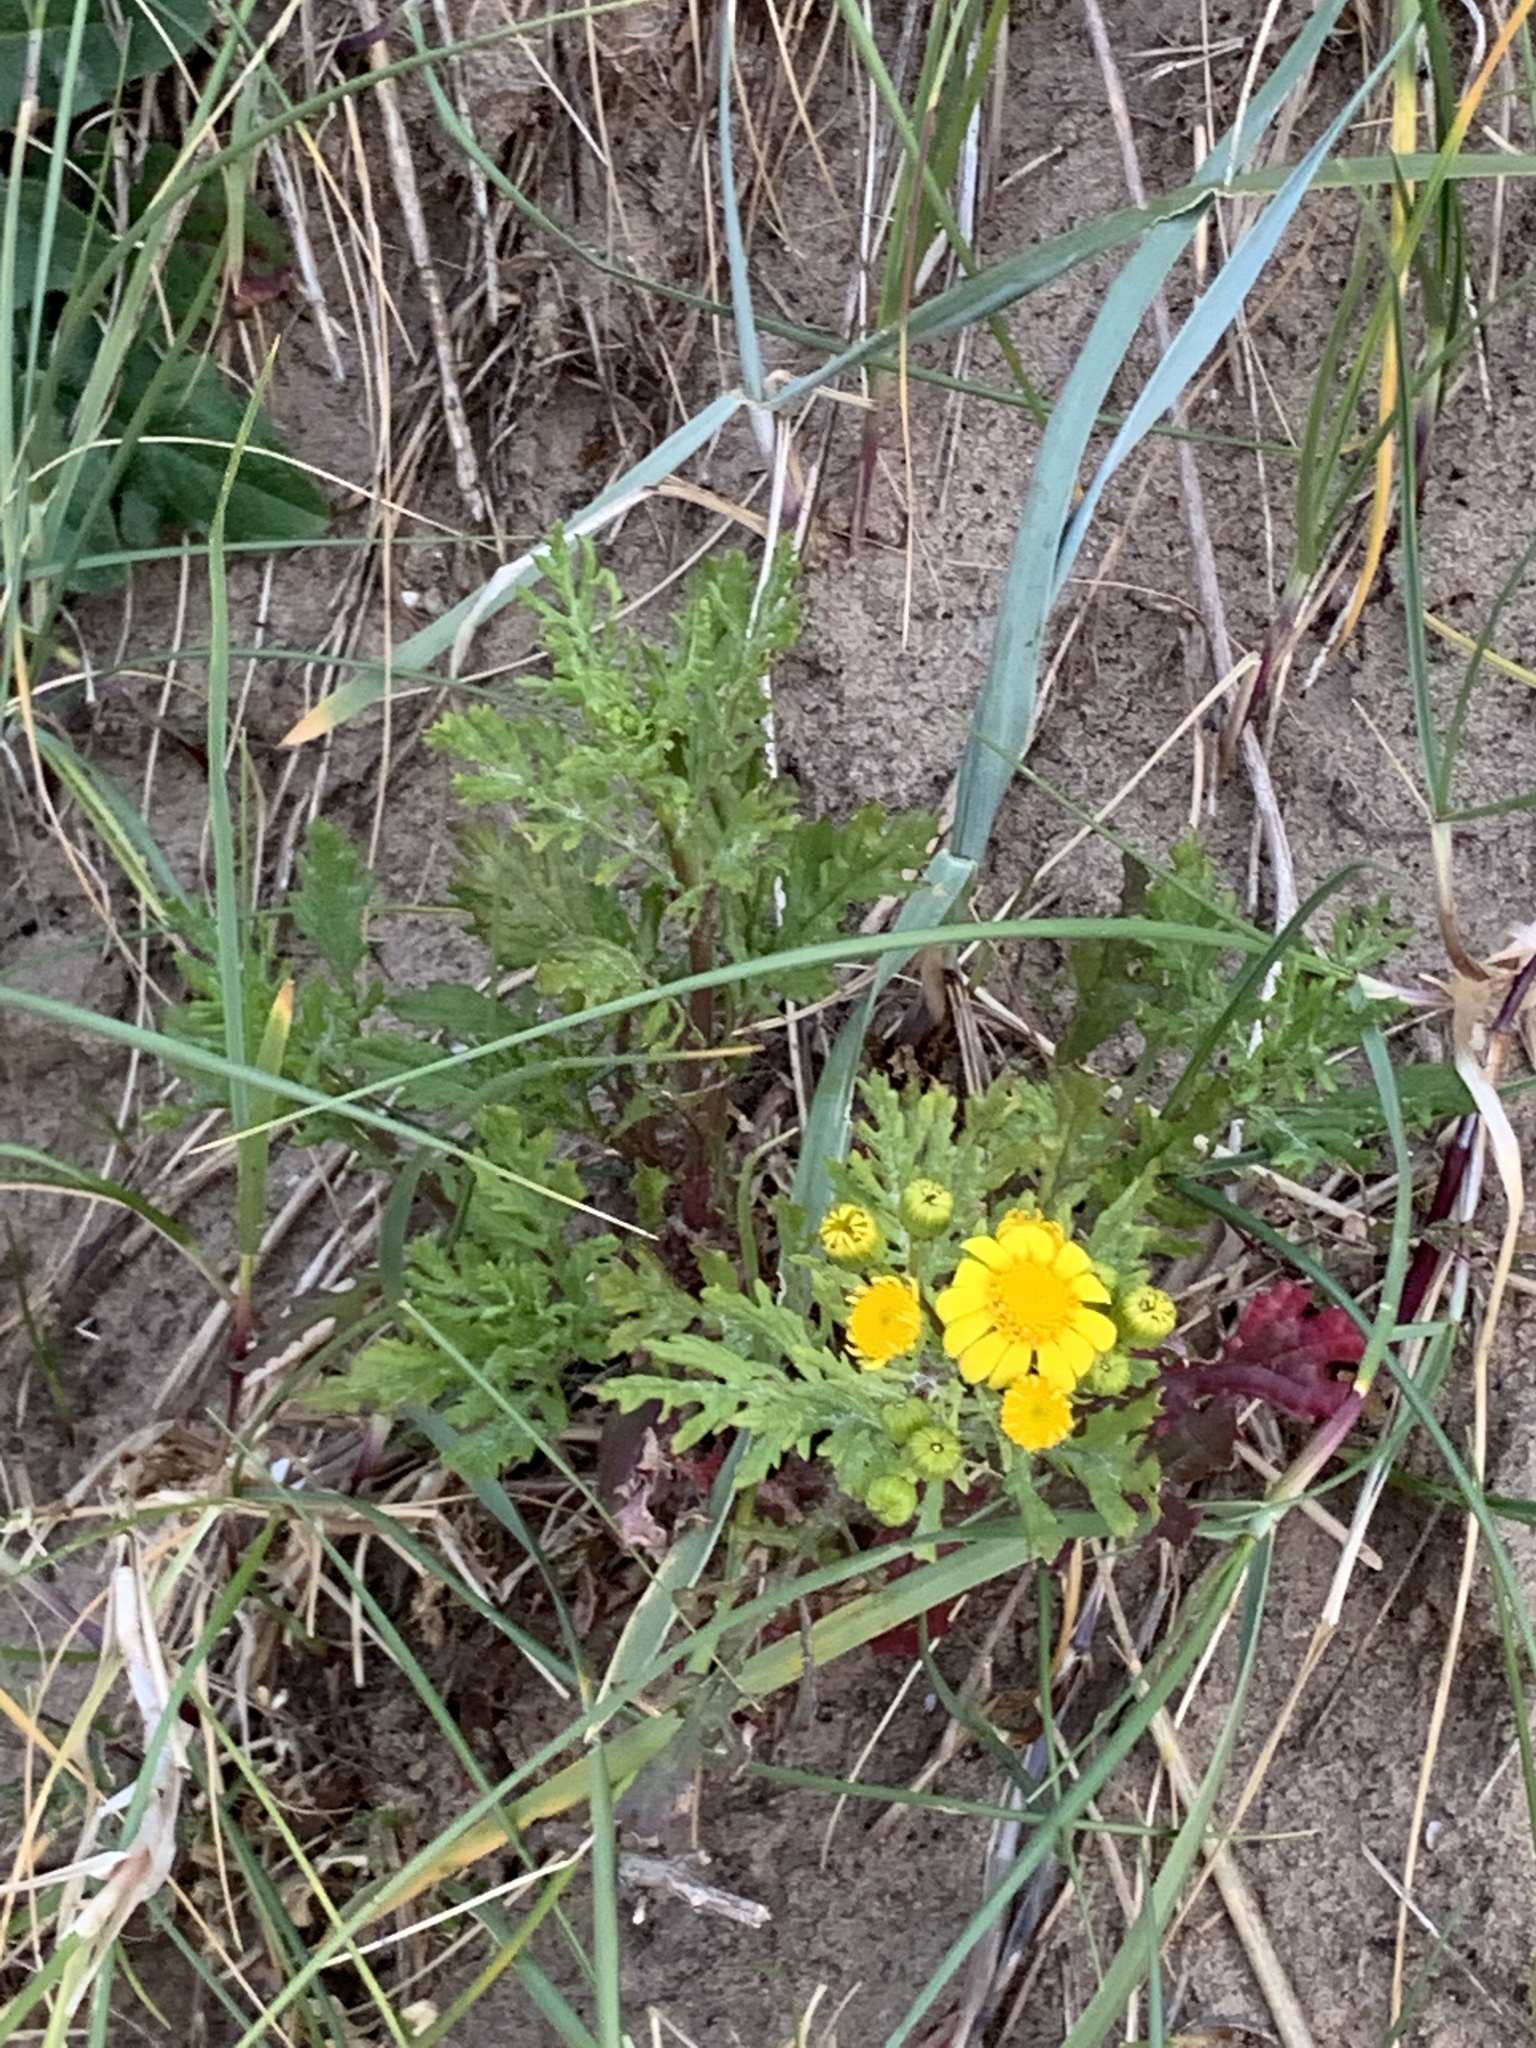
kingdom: Plantae
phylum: Tracheophyta
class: Magnoliopsida
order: Asterales
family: Asteraceae
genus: Senecio
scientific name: Senecio squalidus
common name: Oxford ragwort
